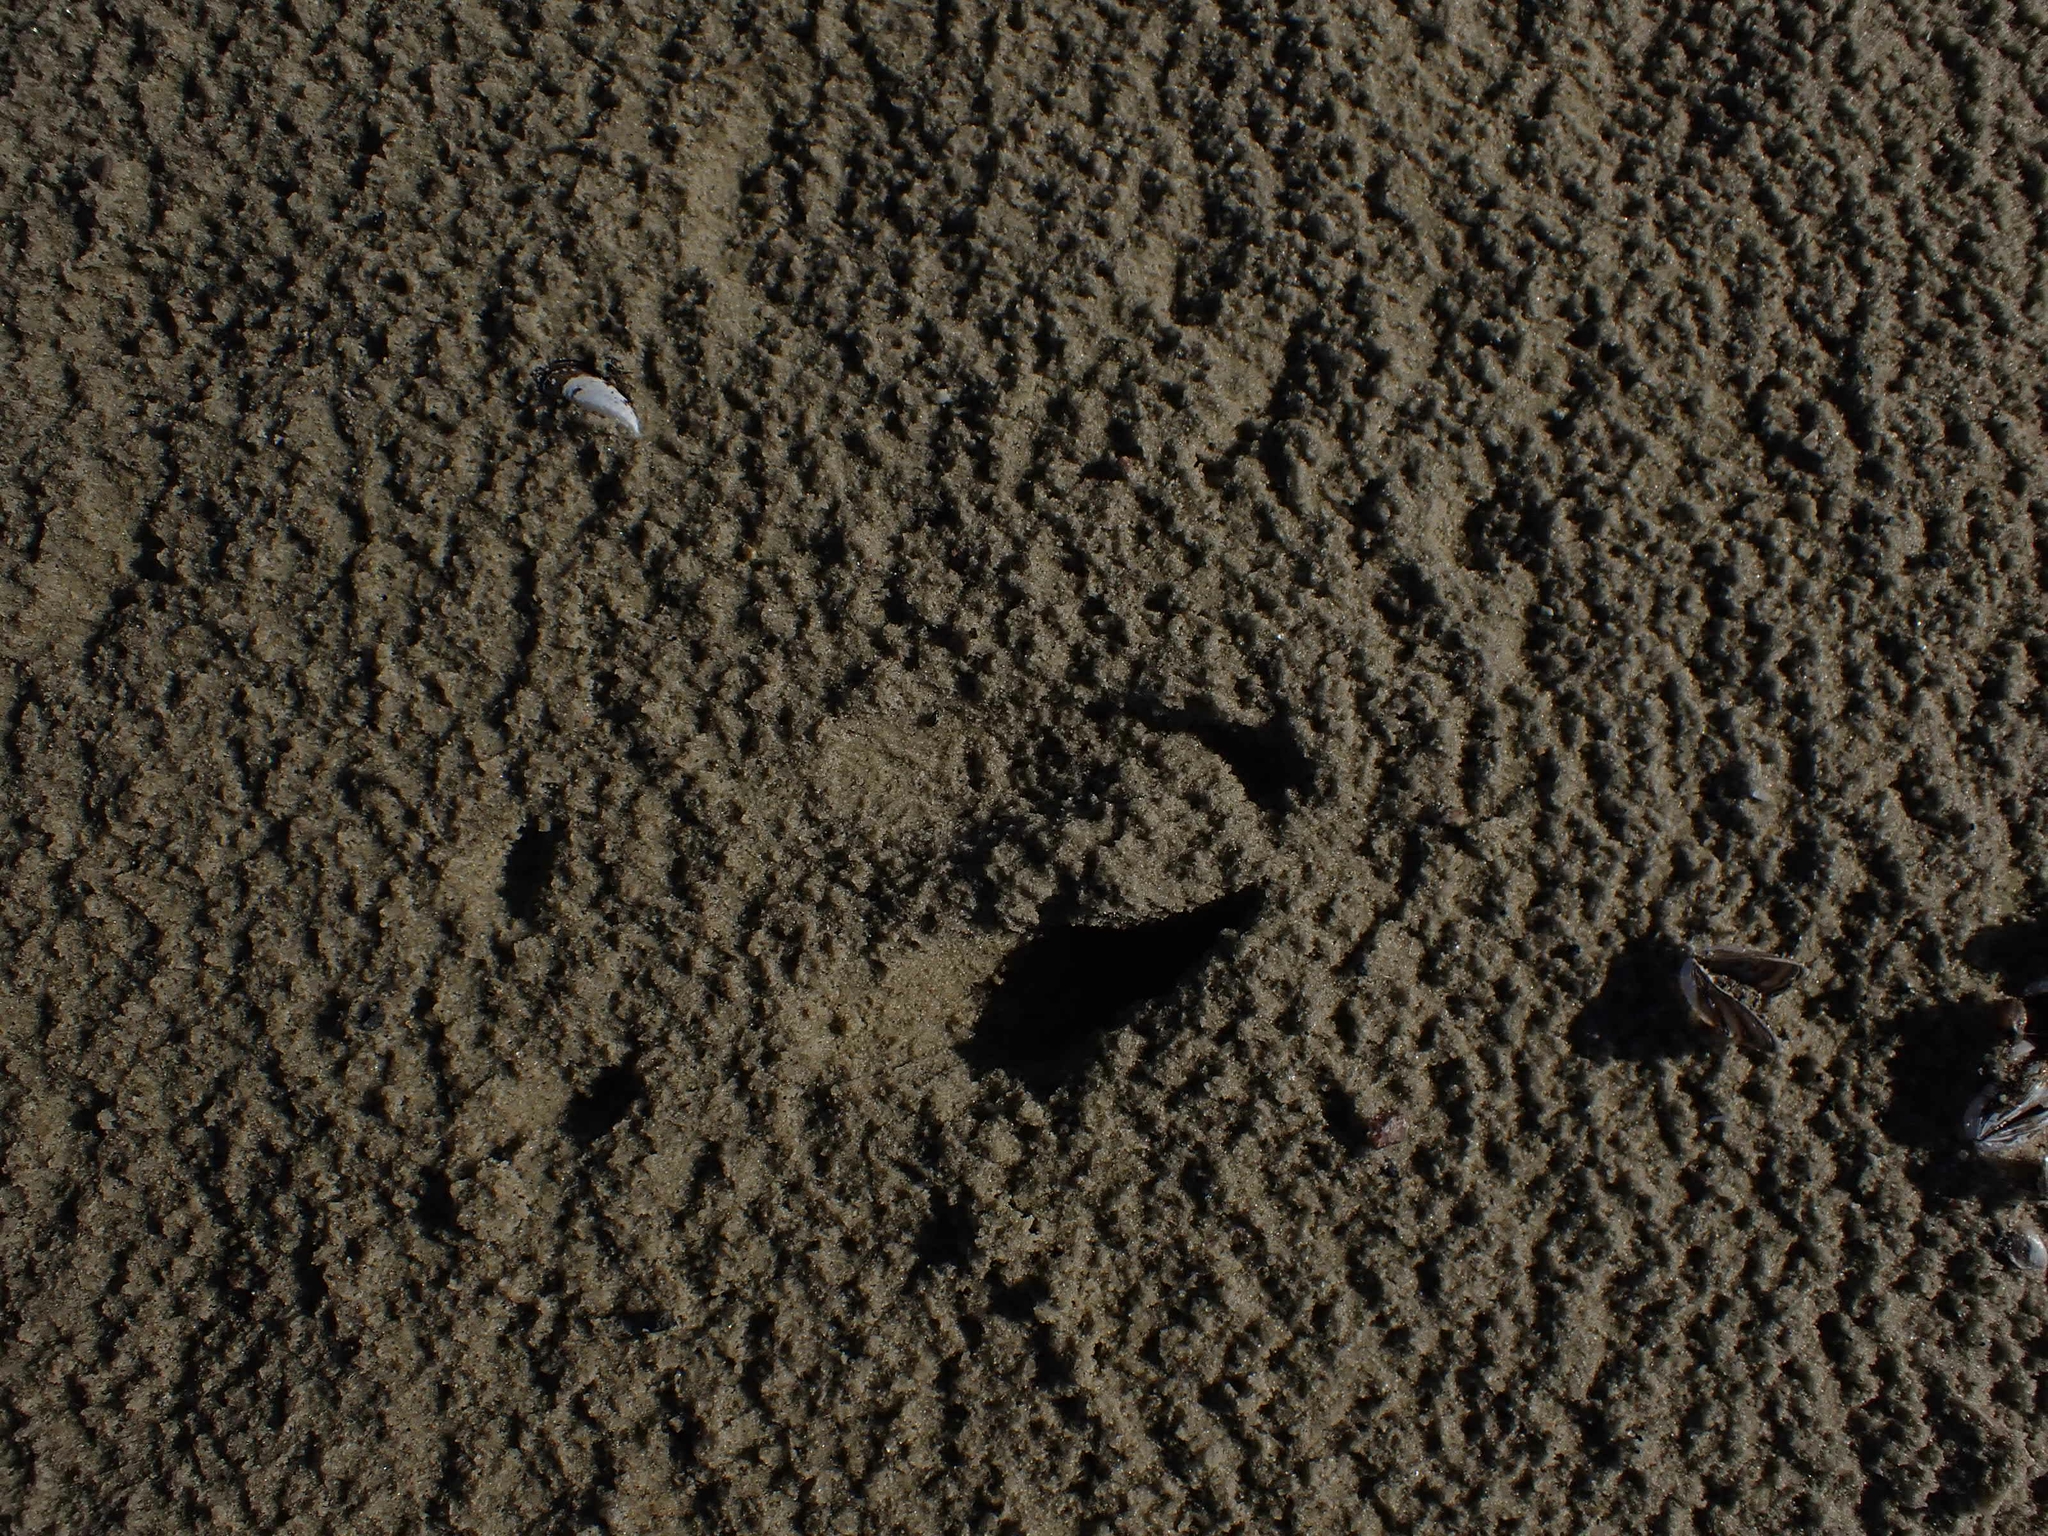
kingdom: Animalia
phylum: Chordata
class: Mammalia
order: Artiodactyla
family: Cervidae
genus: Odocoileus
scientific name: Odocoileus virginianus
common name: White-tailed deer
